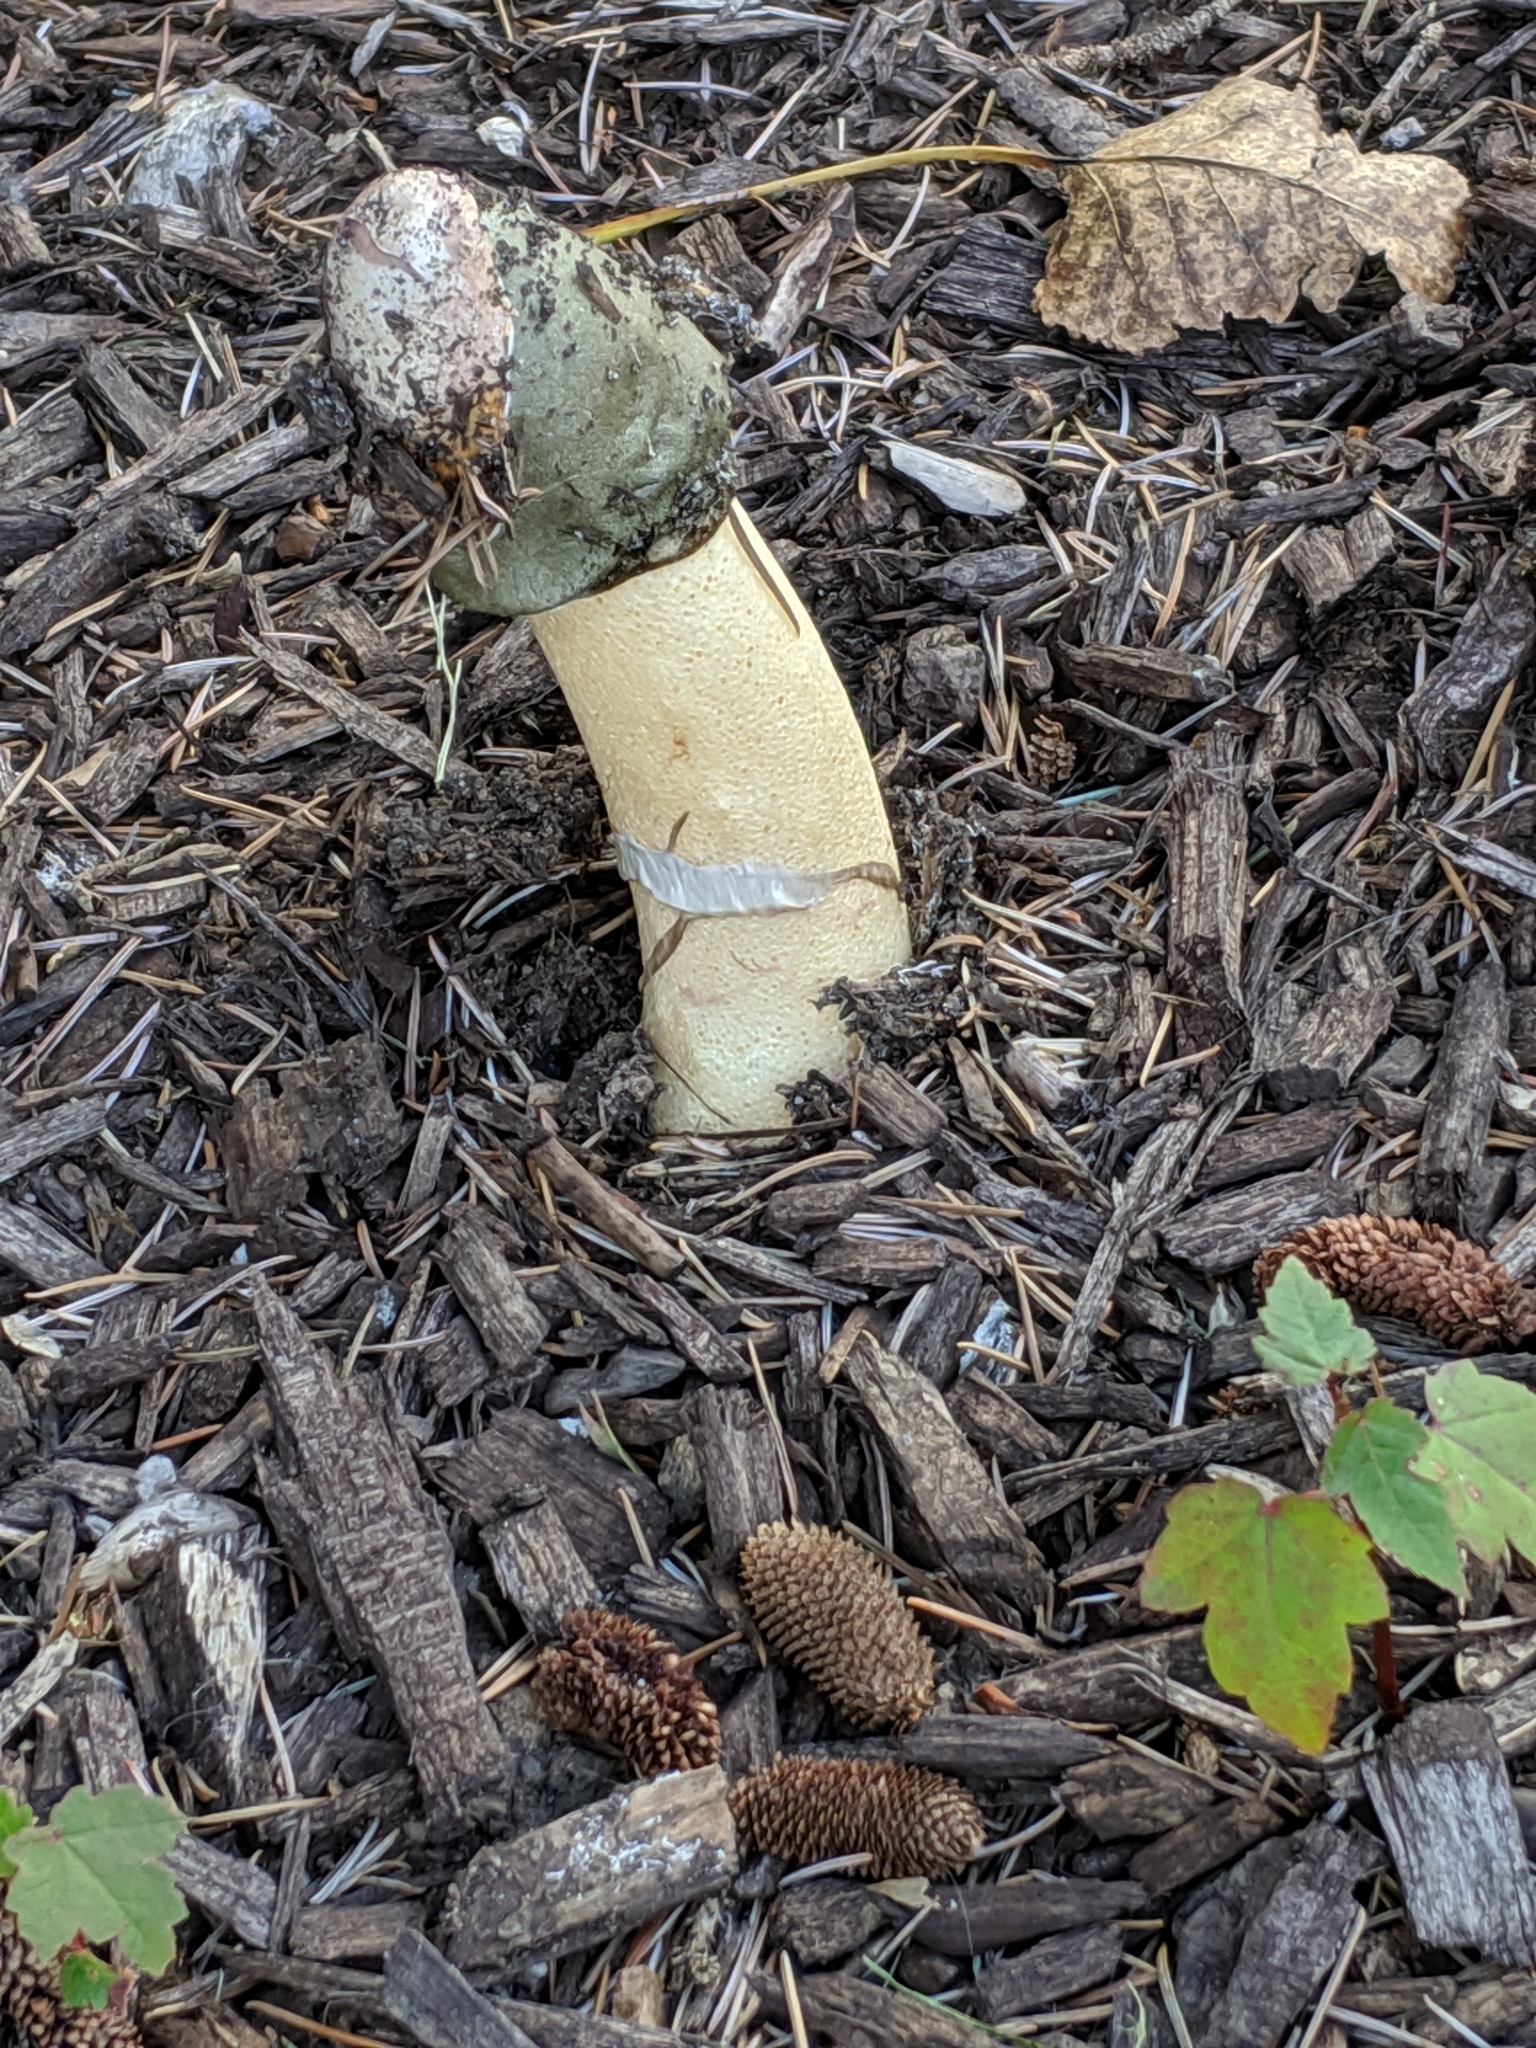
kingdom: Fungi
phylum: Basidiomycota
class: Agaricomycetes
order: Phallales
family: Phallaceae
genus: Phallus
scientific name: Phallus ravenelii
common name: Ravenel's stinkhorn
